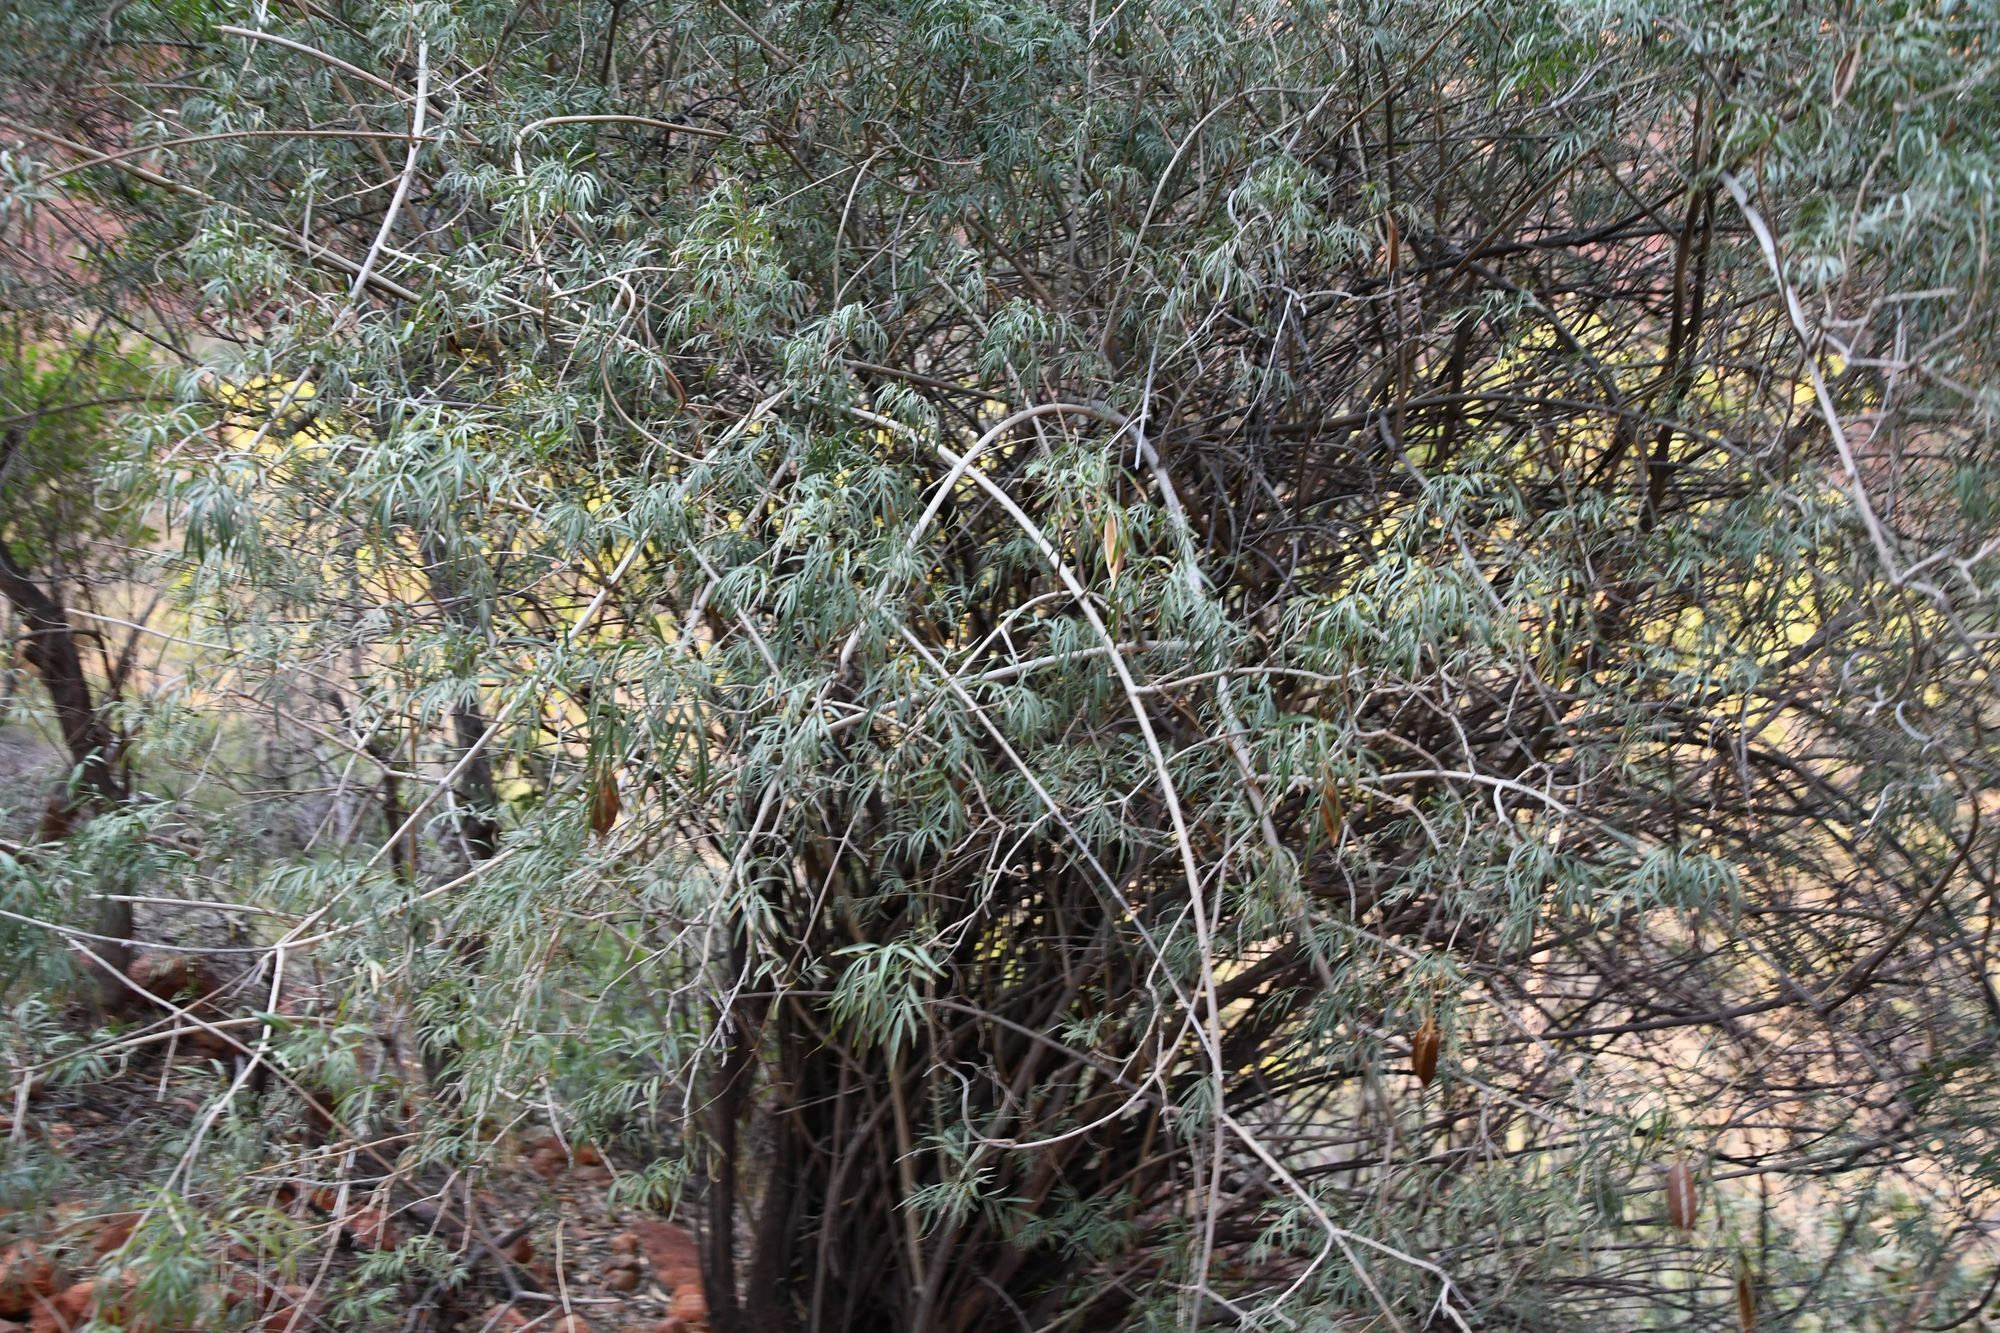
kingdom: Plantae
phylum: Tracheophyta
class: Magnoliopsida
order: Lamiales
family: Bignoniaceae
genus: Pandorea
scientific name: Pandorea doratoxylon
